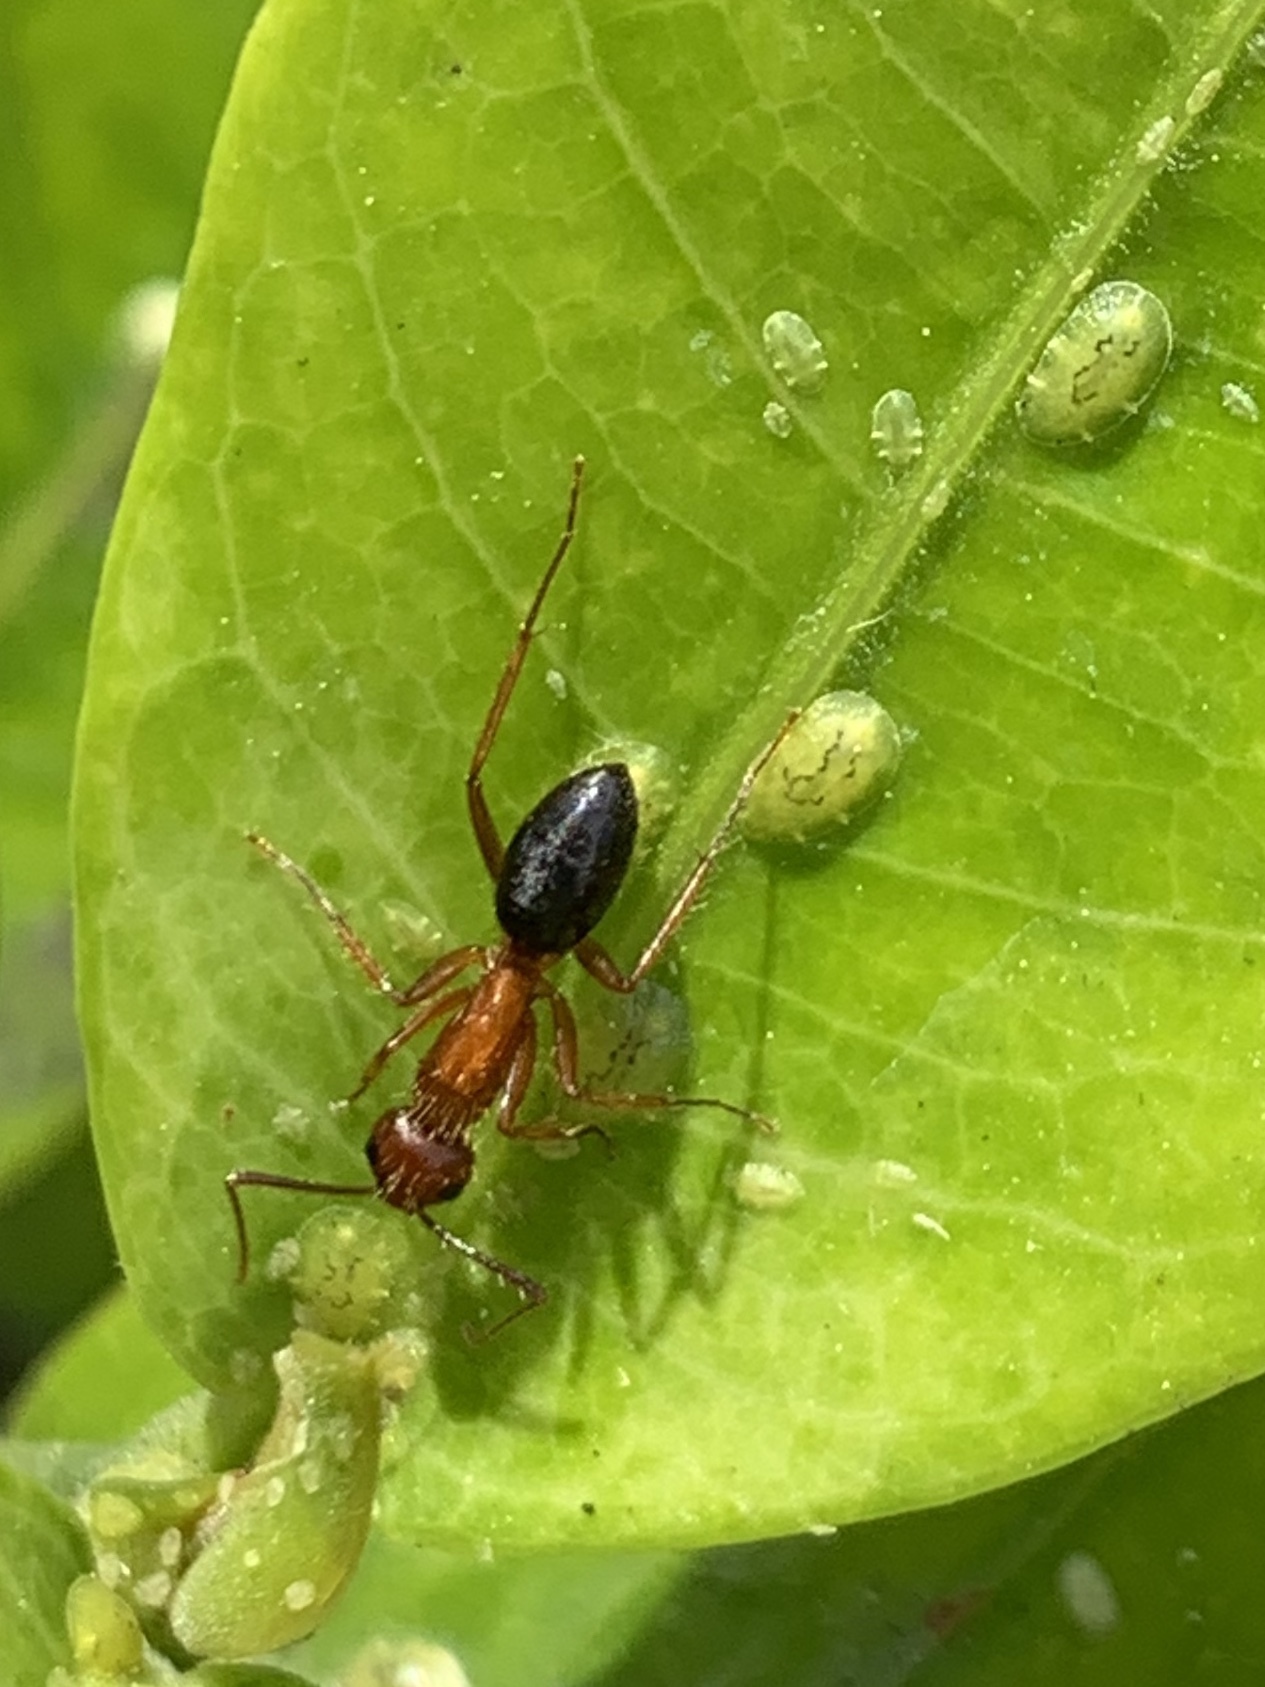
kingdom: Animalia
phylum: Arthropoda
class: Insecta
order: Hymenoptera
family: Formicidae
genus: Camponotus
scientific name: Camponotus floridanus
